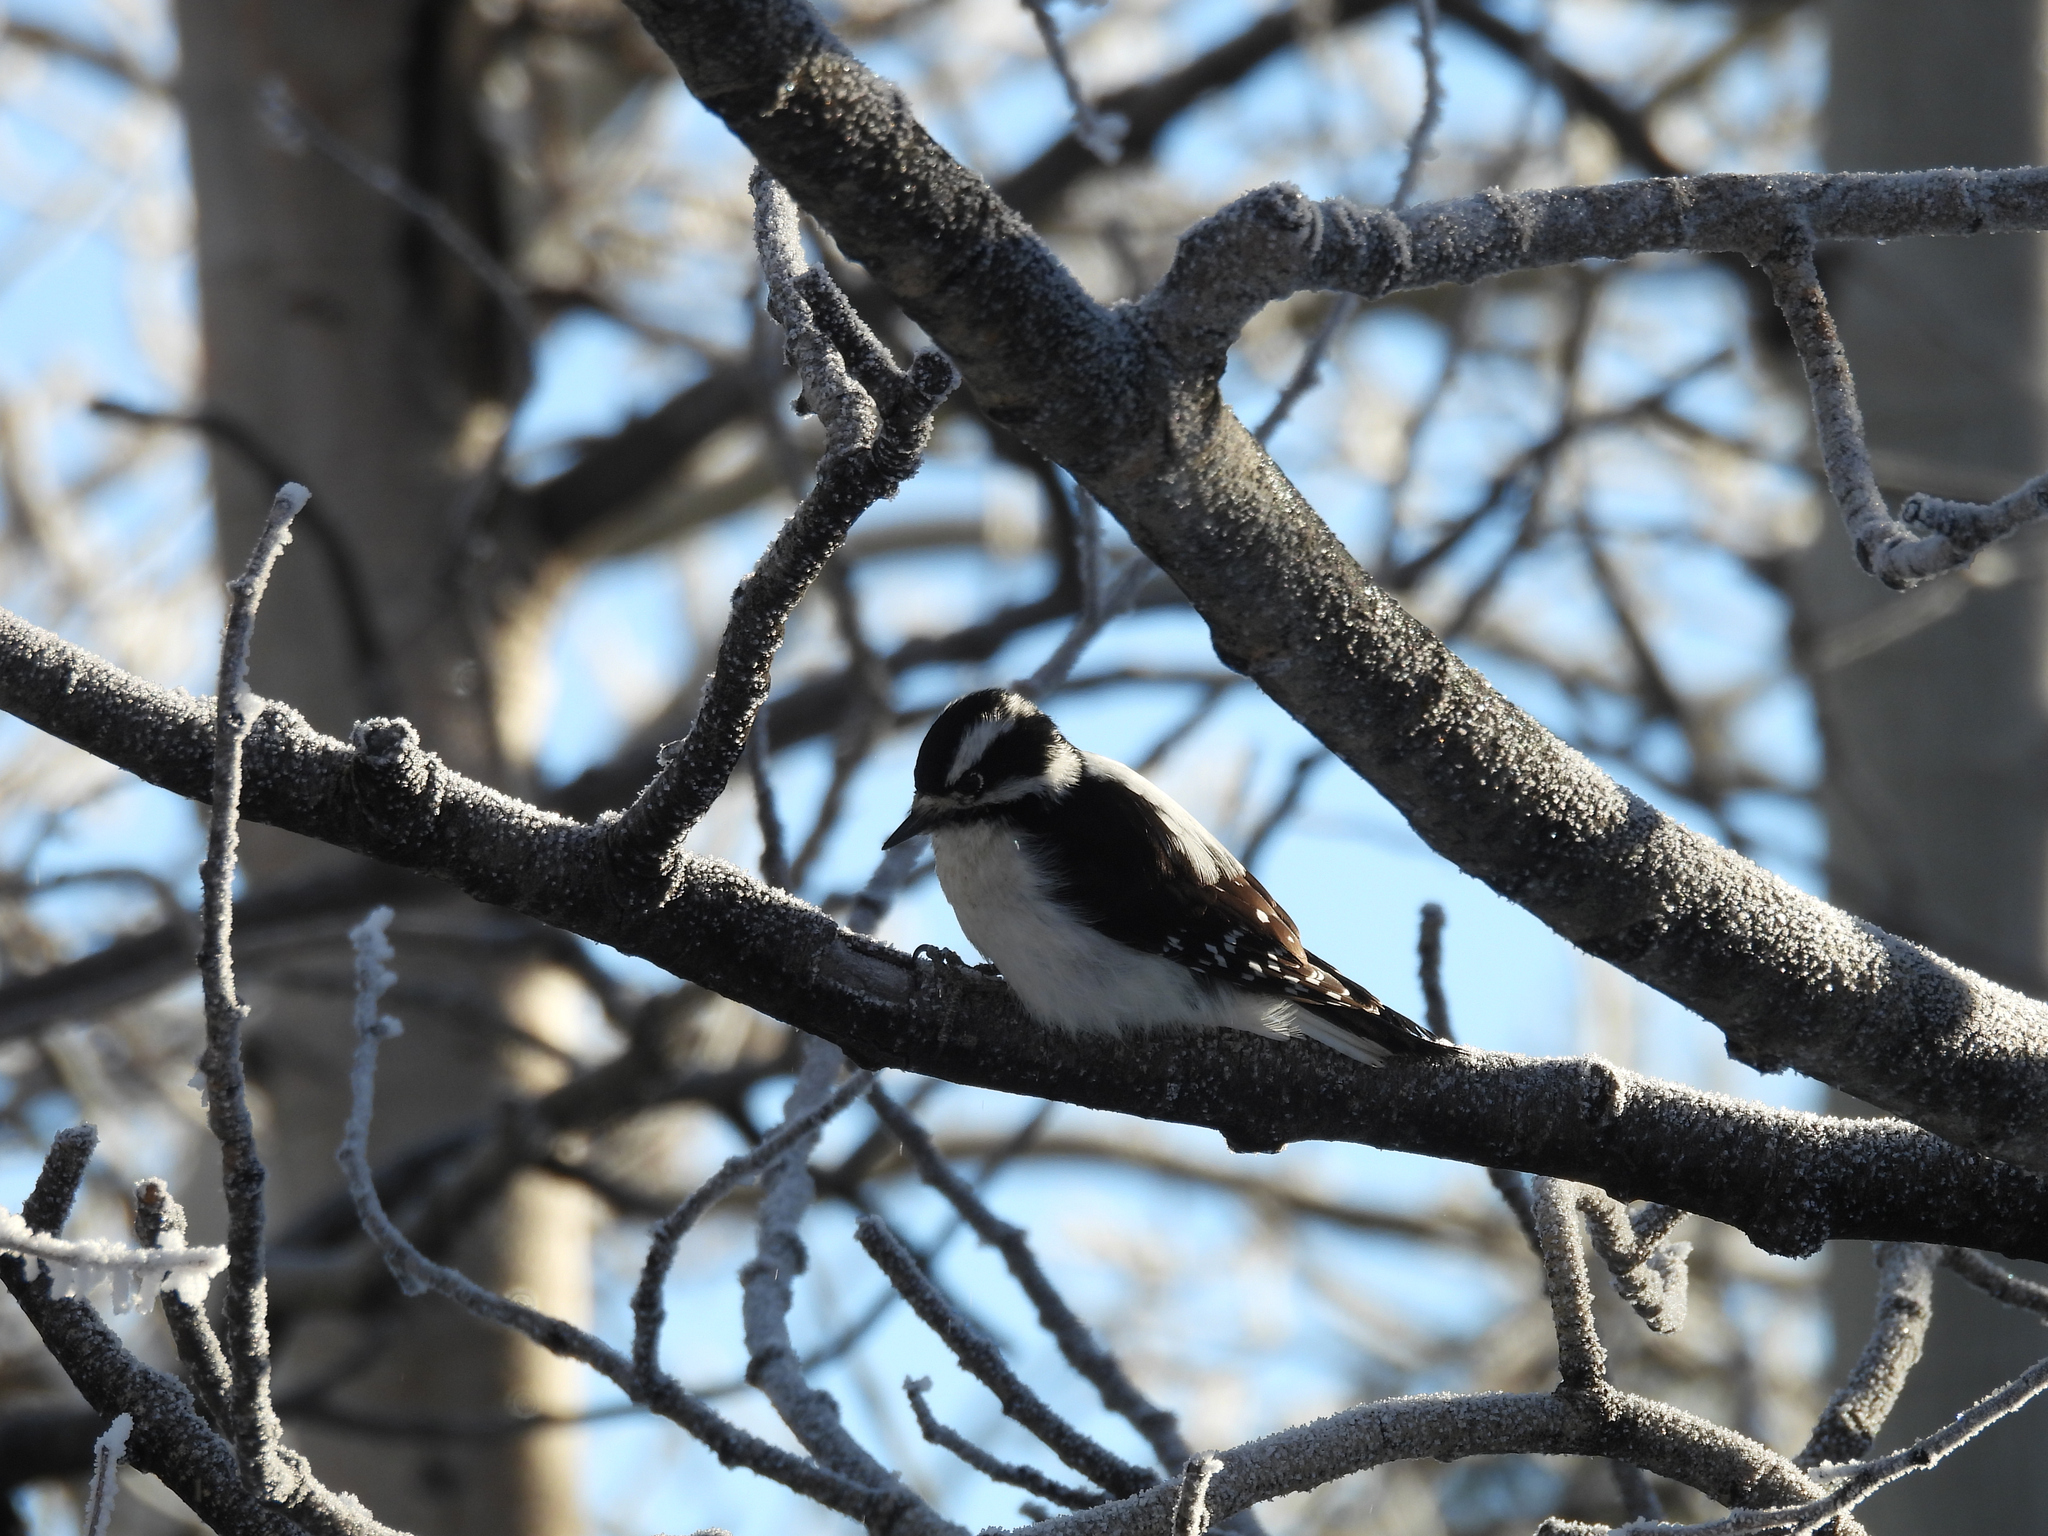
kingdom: Animalia
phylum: Chordata
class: Aves
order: Piciformes
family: Picidae
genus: Dryobates
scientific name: Dryobates pubescens
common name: Downy woodpecker
